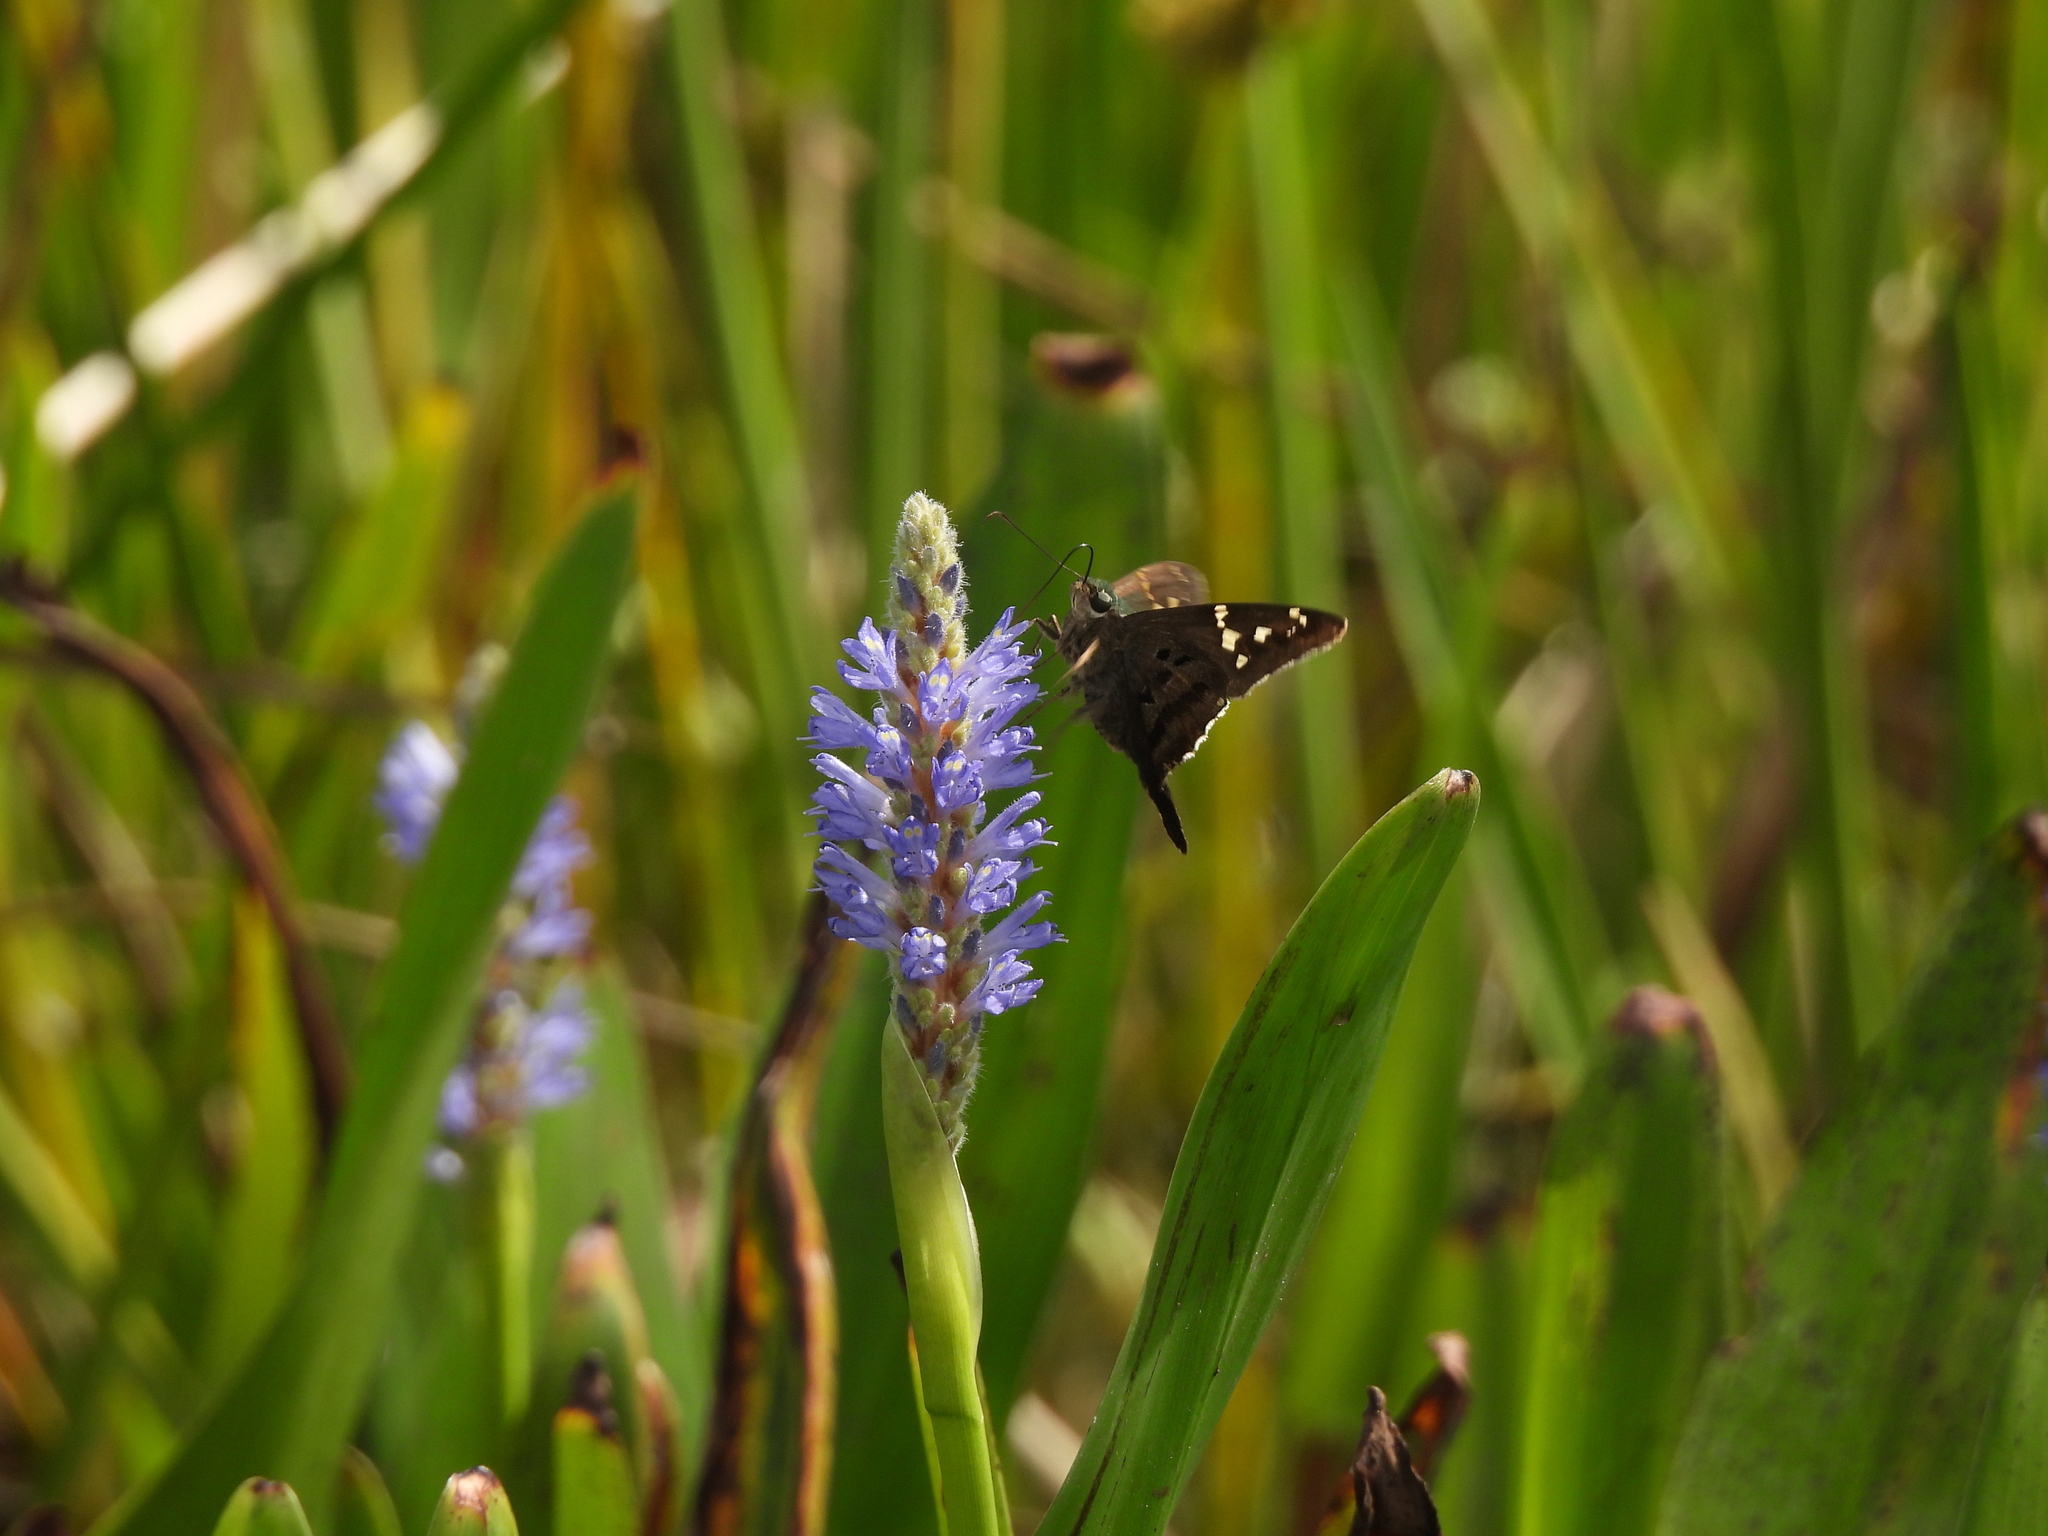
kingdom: Animalia
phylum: Arthropoda
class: Insecta
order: Lepidoptera
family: Hesperiidae
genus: Urbanus
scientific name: Urbanus proteus
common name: Long-tailed skipper
